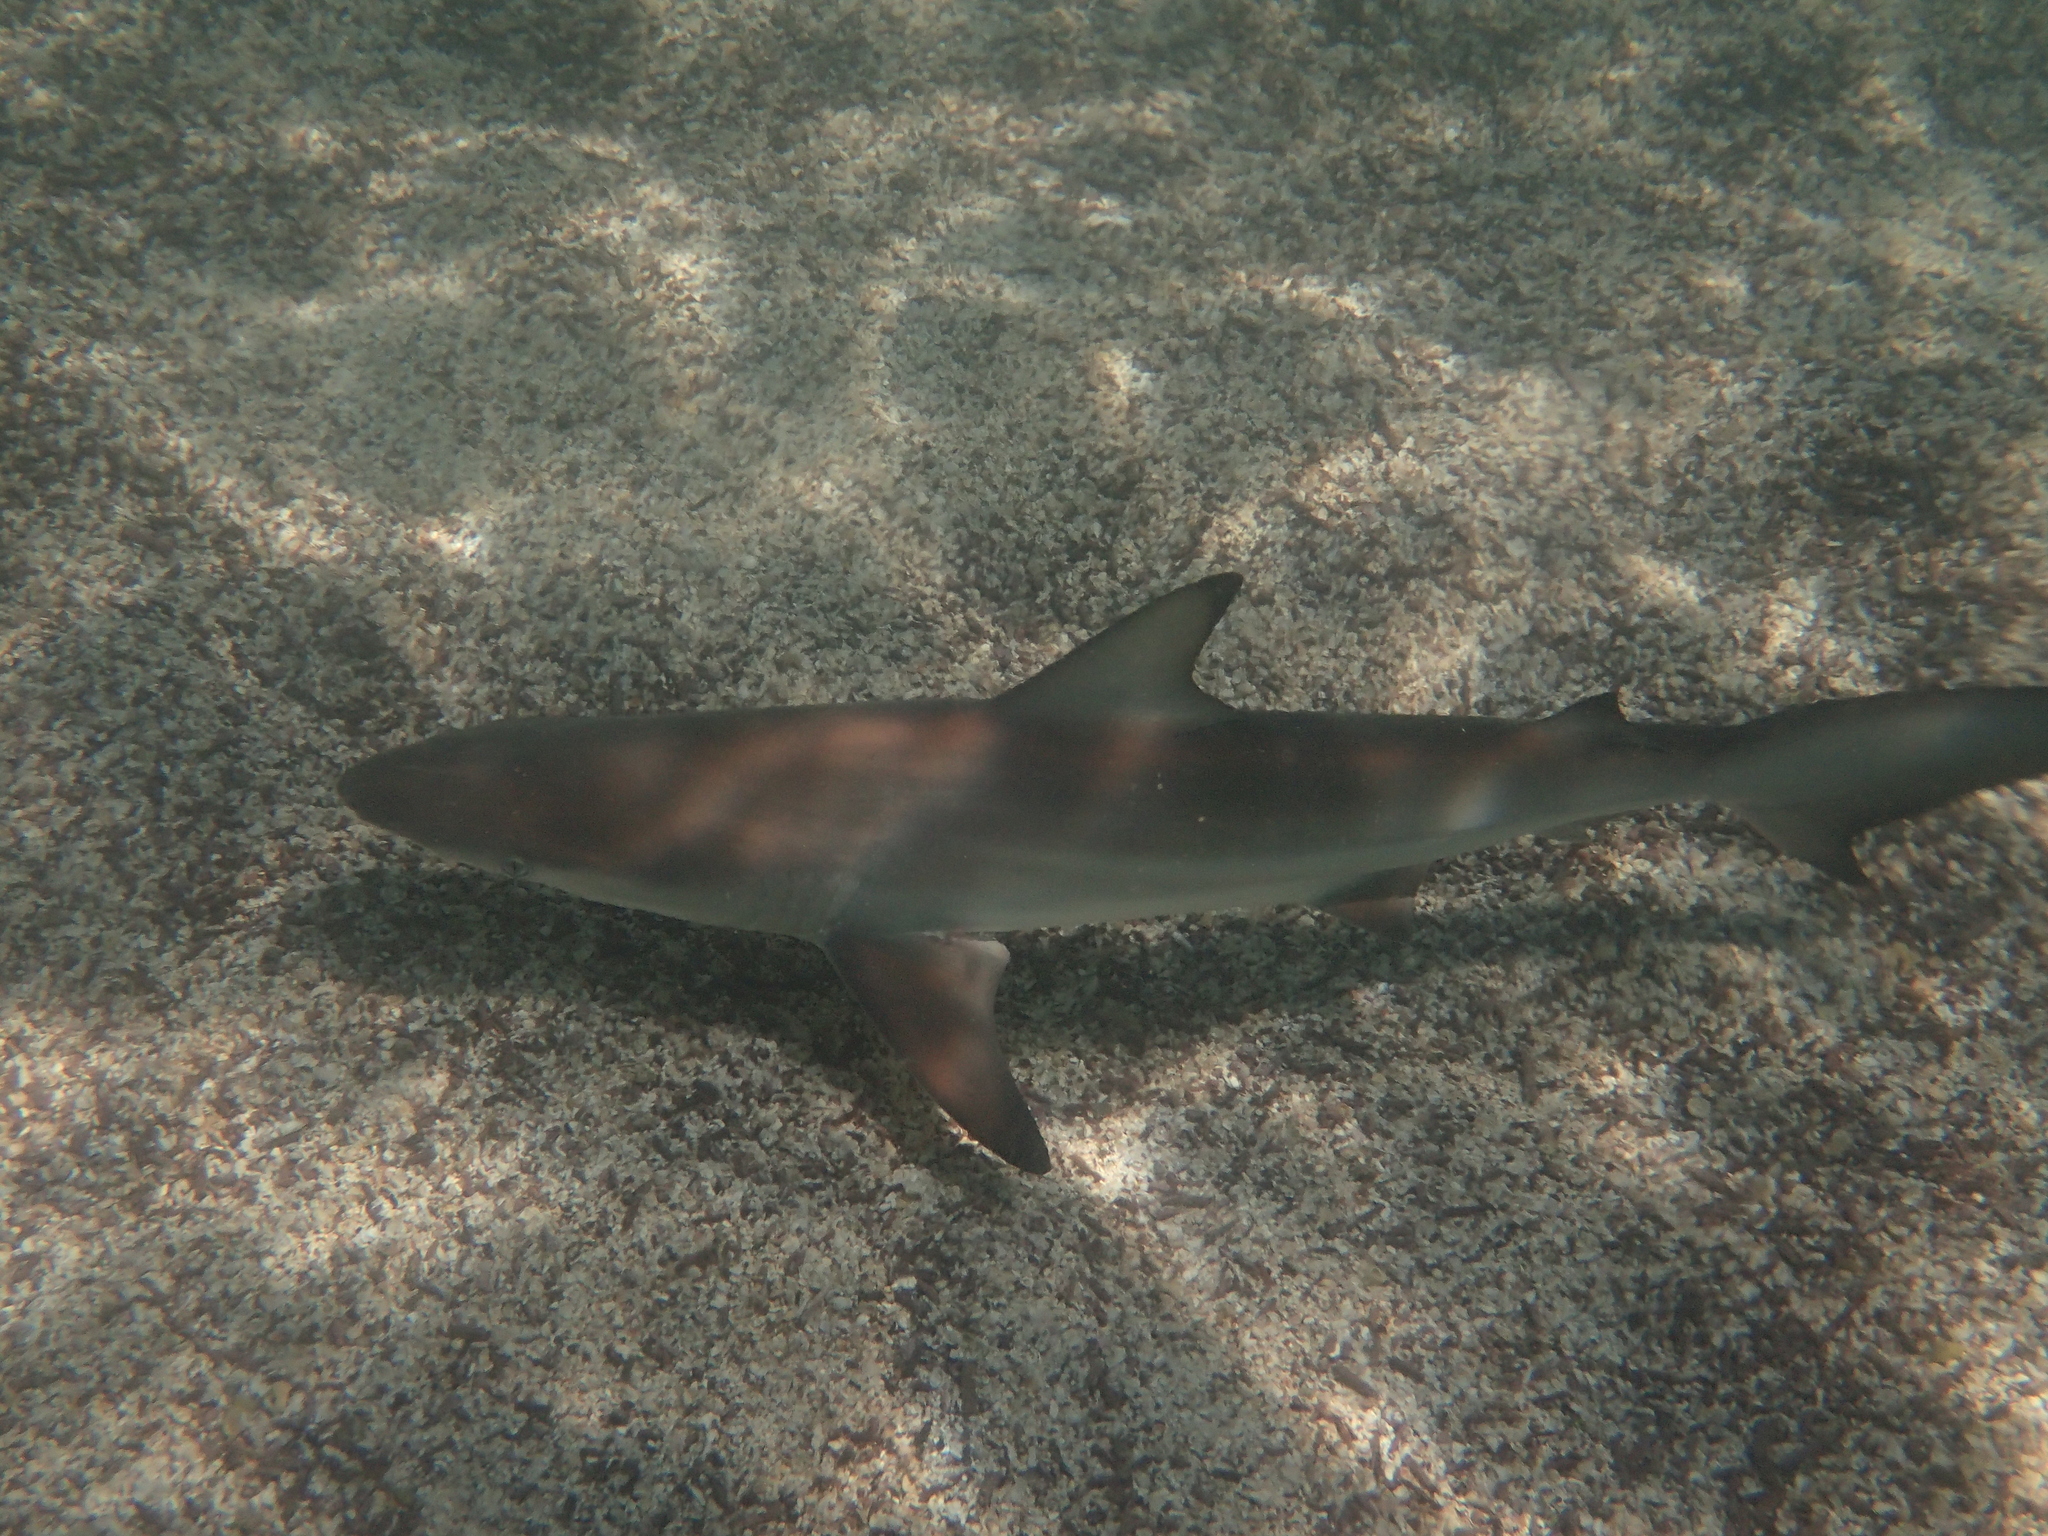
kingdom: Animalia
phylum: Chordata
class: Elasmobranchii
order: Carcharhiniformes
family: Carcharhinidae
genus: Carcharhinus
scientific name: Carcharhinus limbatus
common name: Blacktip shark
